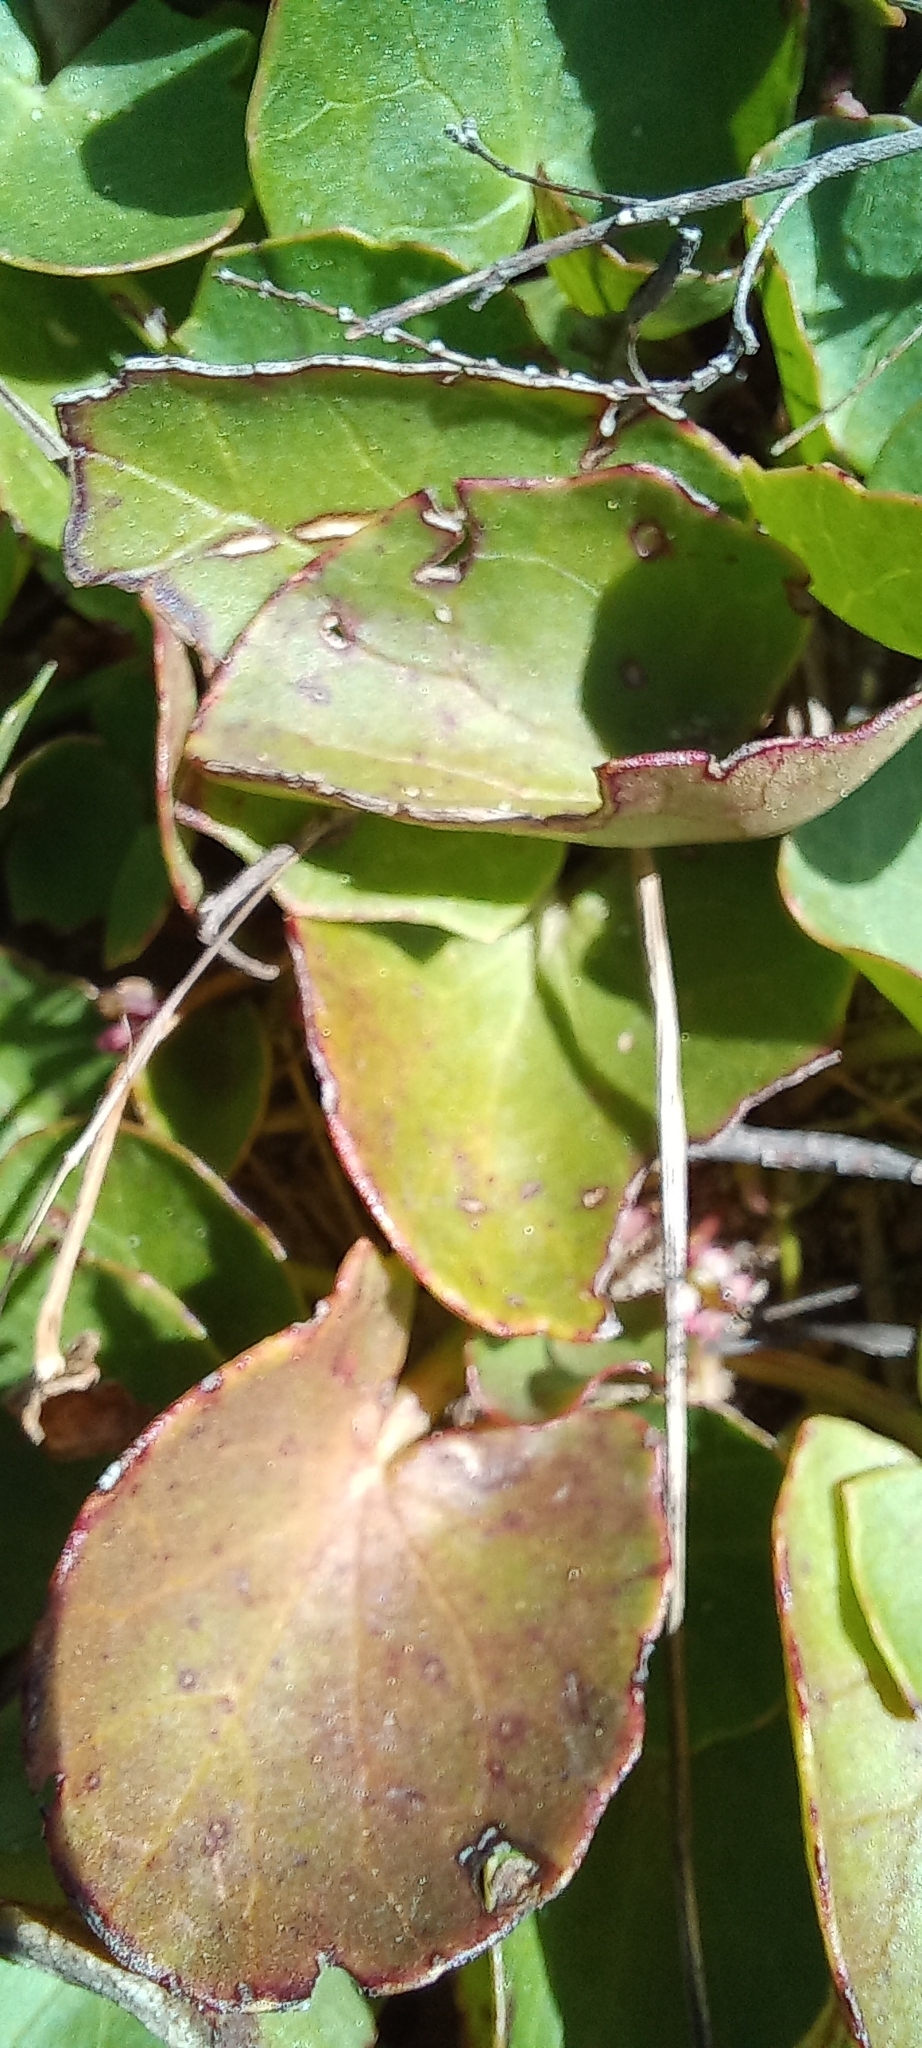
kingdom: Plantae
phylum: Tracheophyta
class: Magnoliopsida
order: Apiales
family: Apiaceae
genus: Centella
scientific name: Centella asiatica
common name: Spadeleaf
